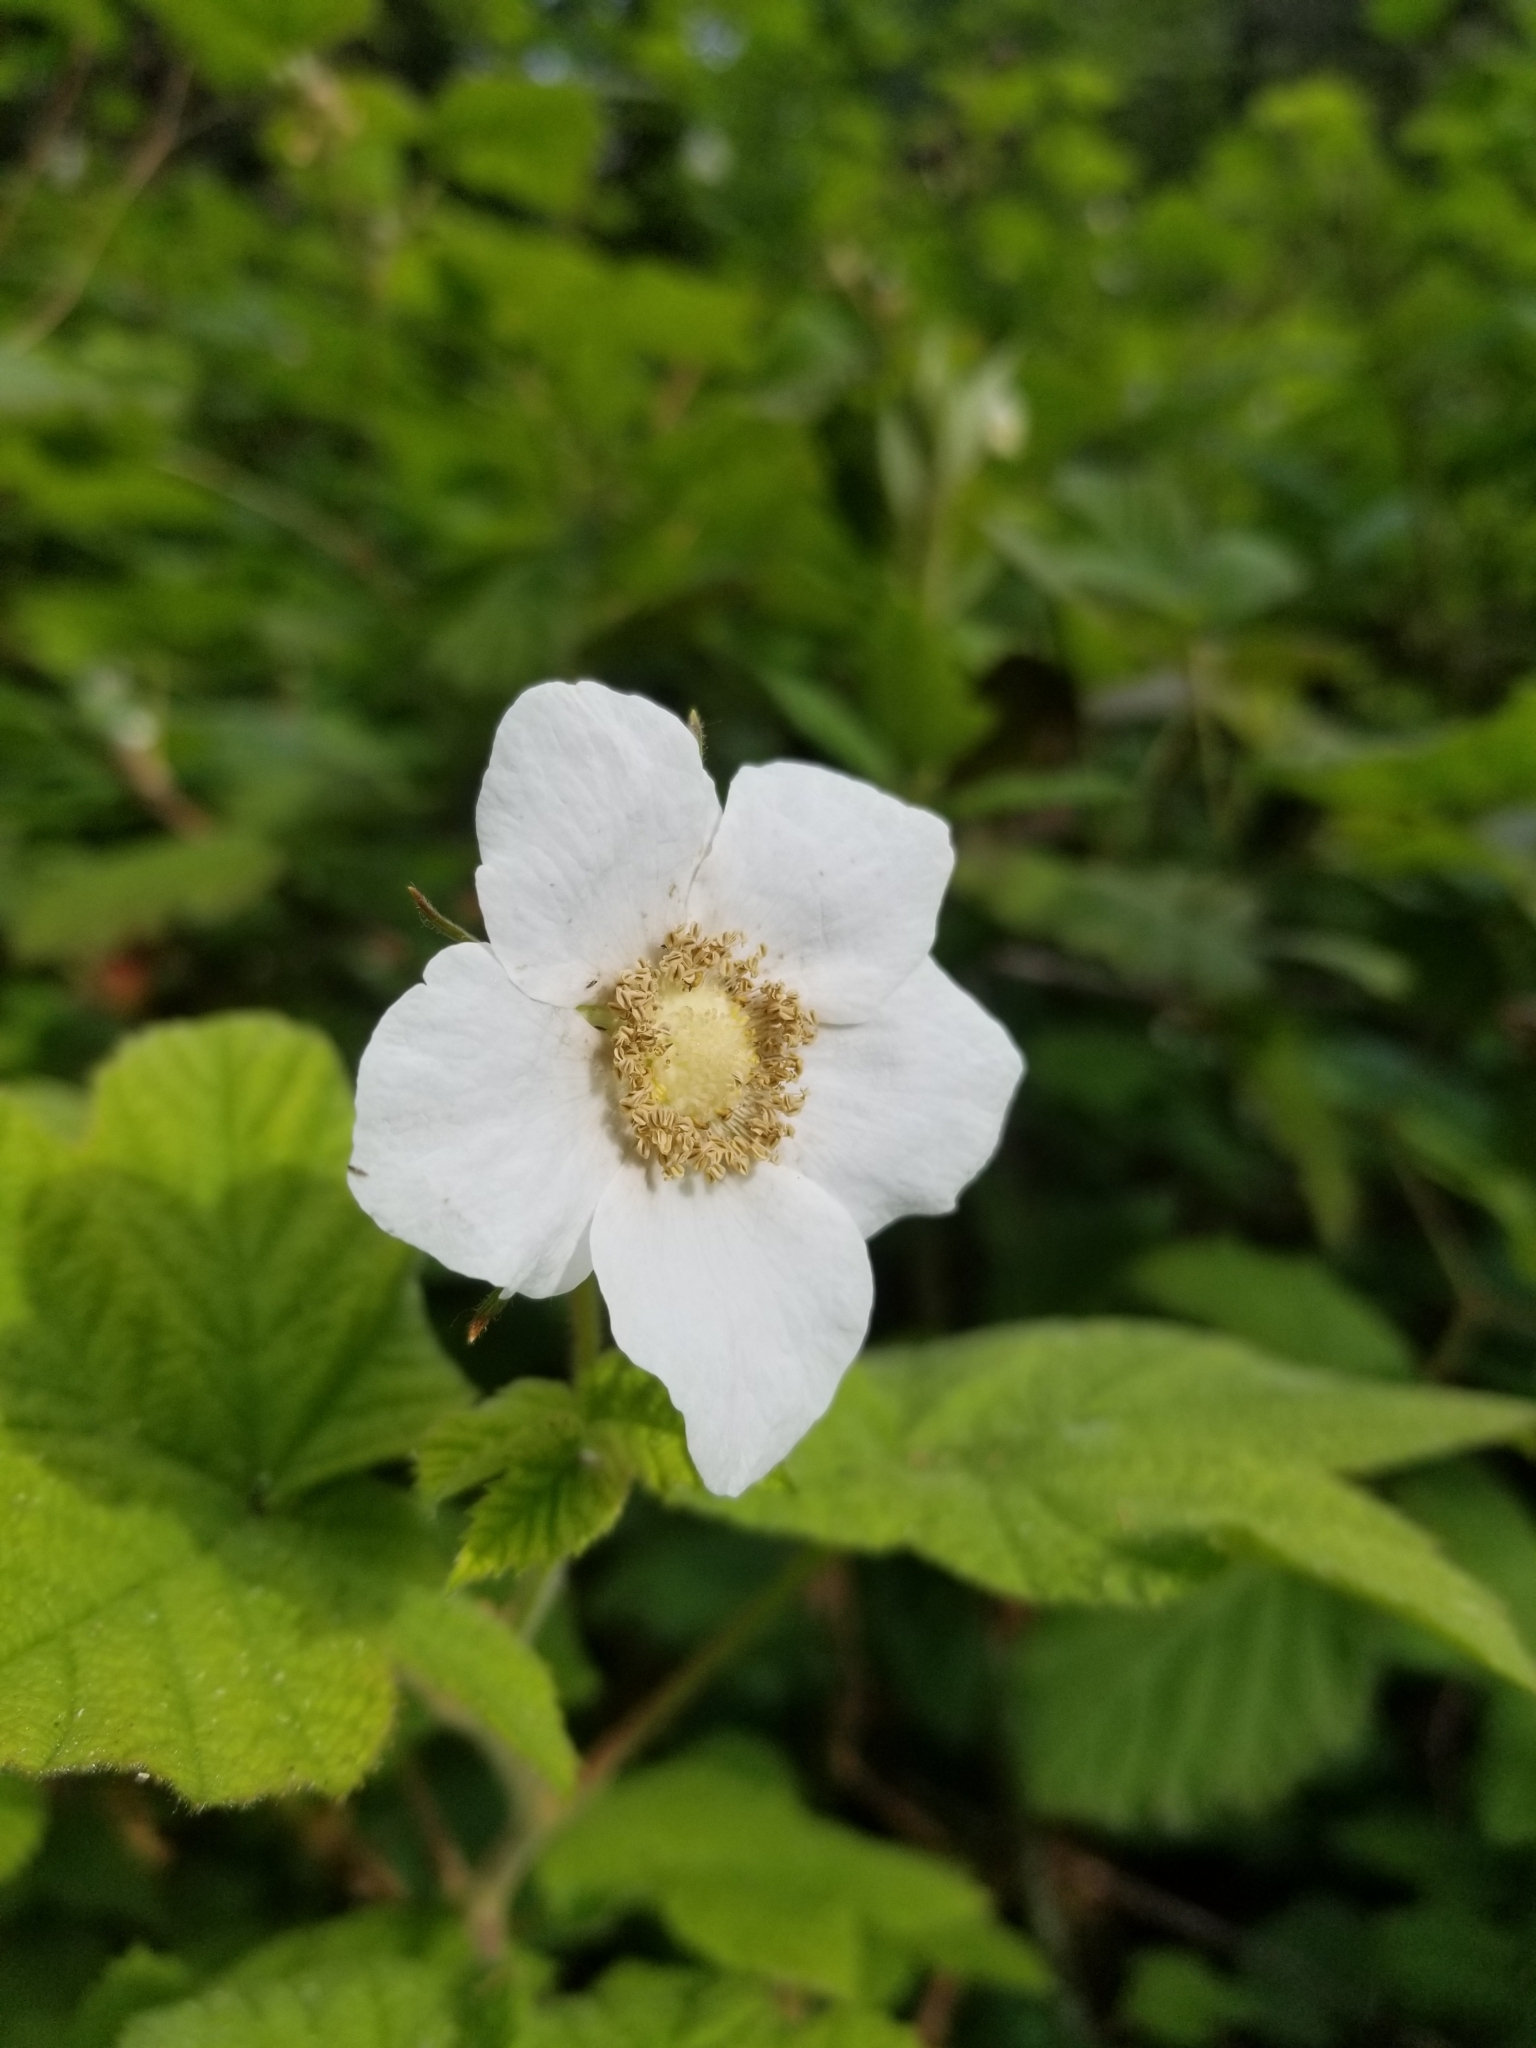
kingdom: Plantae
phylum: Tracheophyta
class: Magnoliopsida
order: Rosales
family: Rosaceae
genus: Rubus
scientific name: Rubus parviflorus
